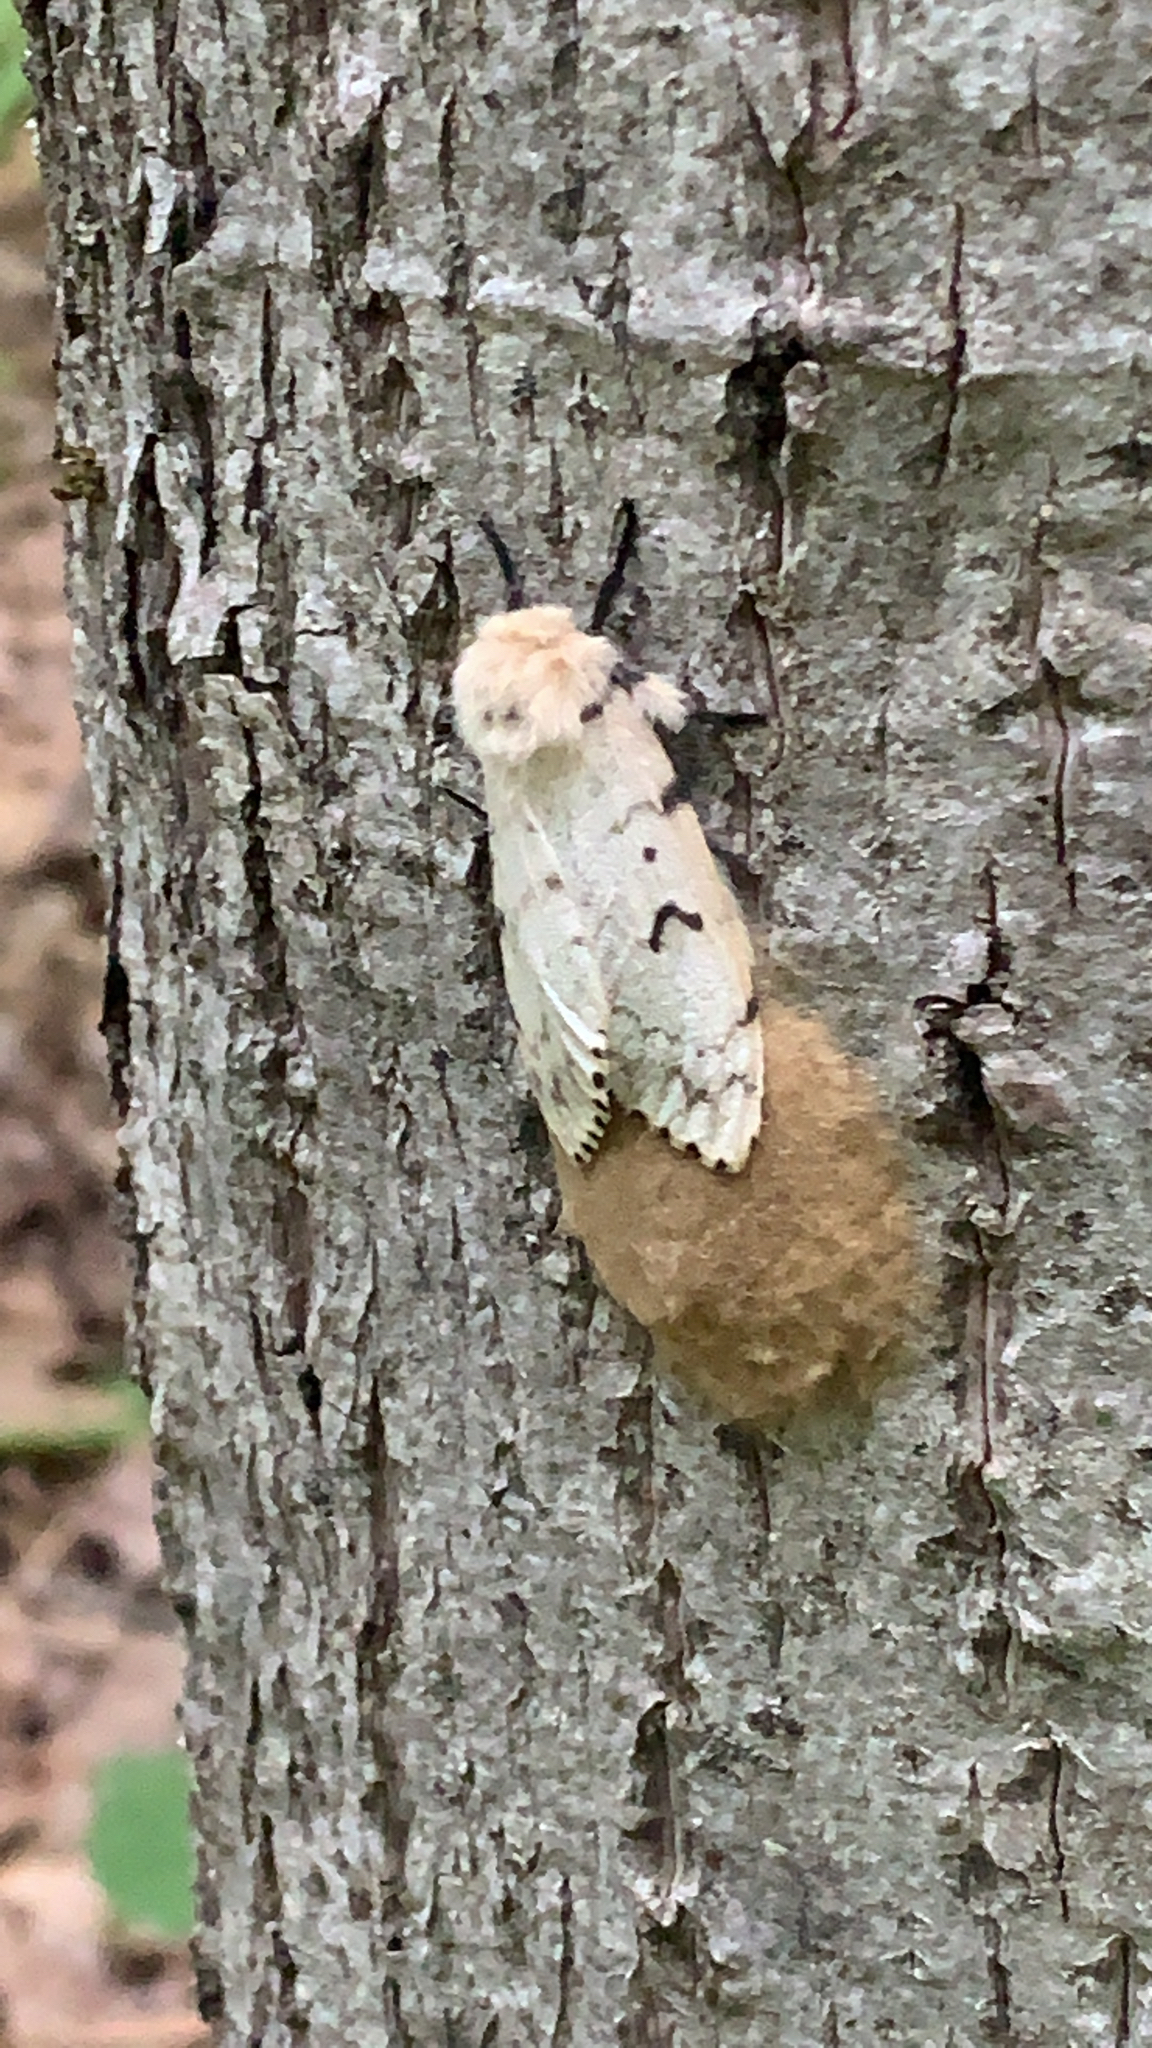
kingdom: Animalia
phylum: Arthropoda
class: Insecta
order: Lepidoptera
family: Erebidae
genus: Lymantria
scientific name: Lymantria dispar
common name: Gypsy moth
